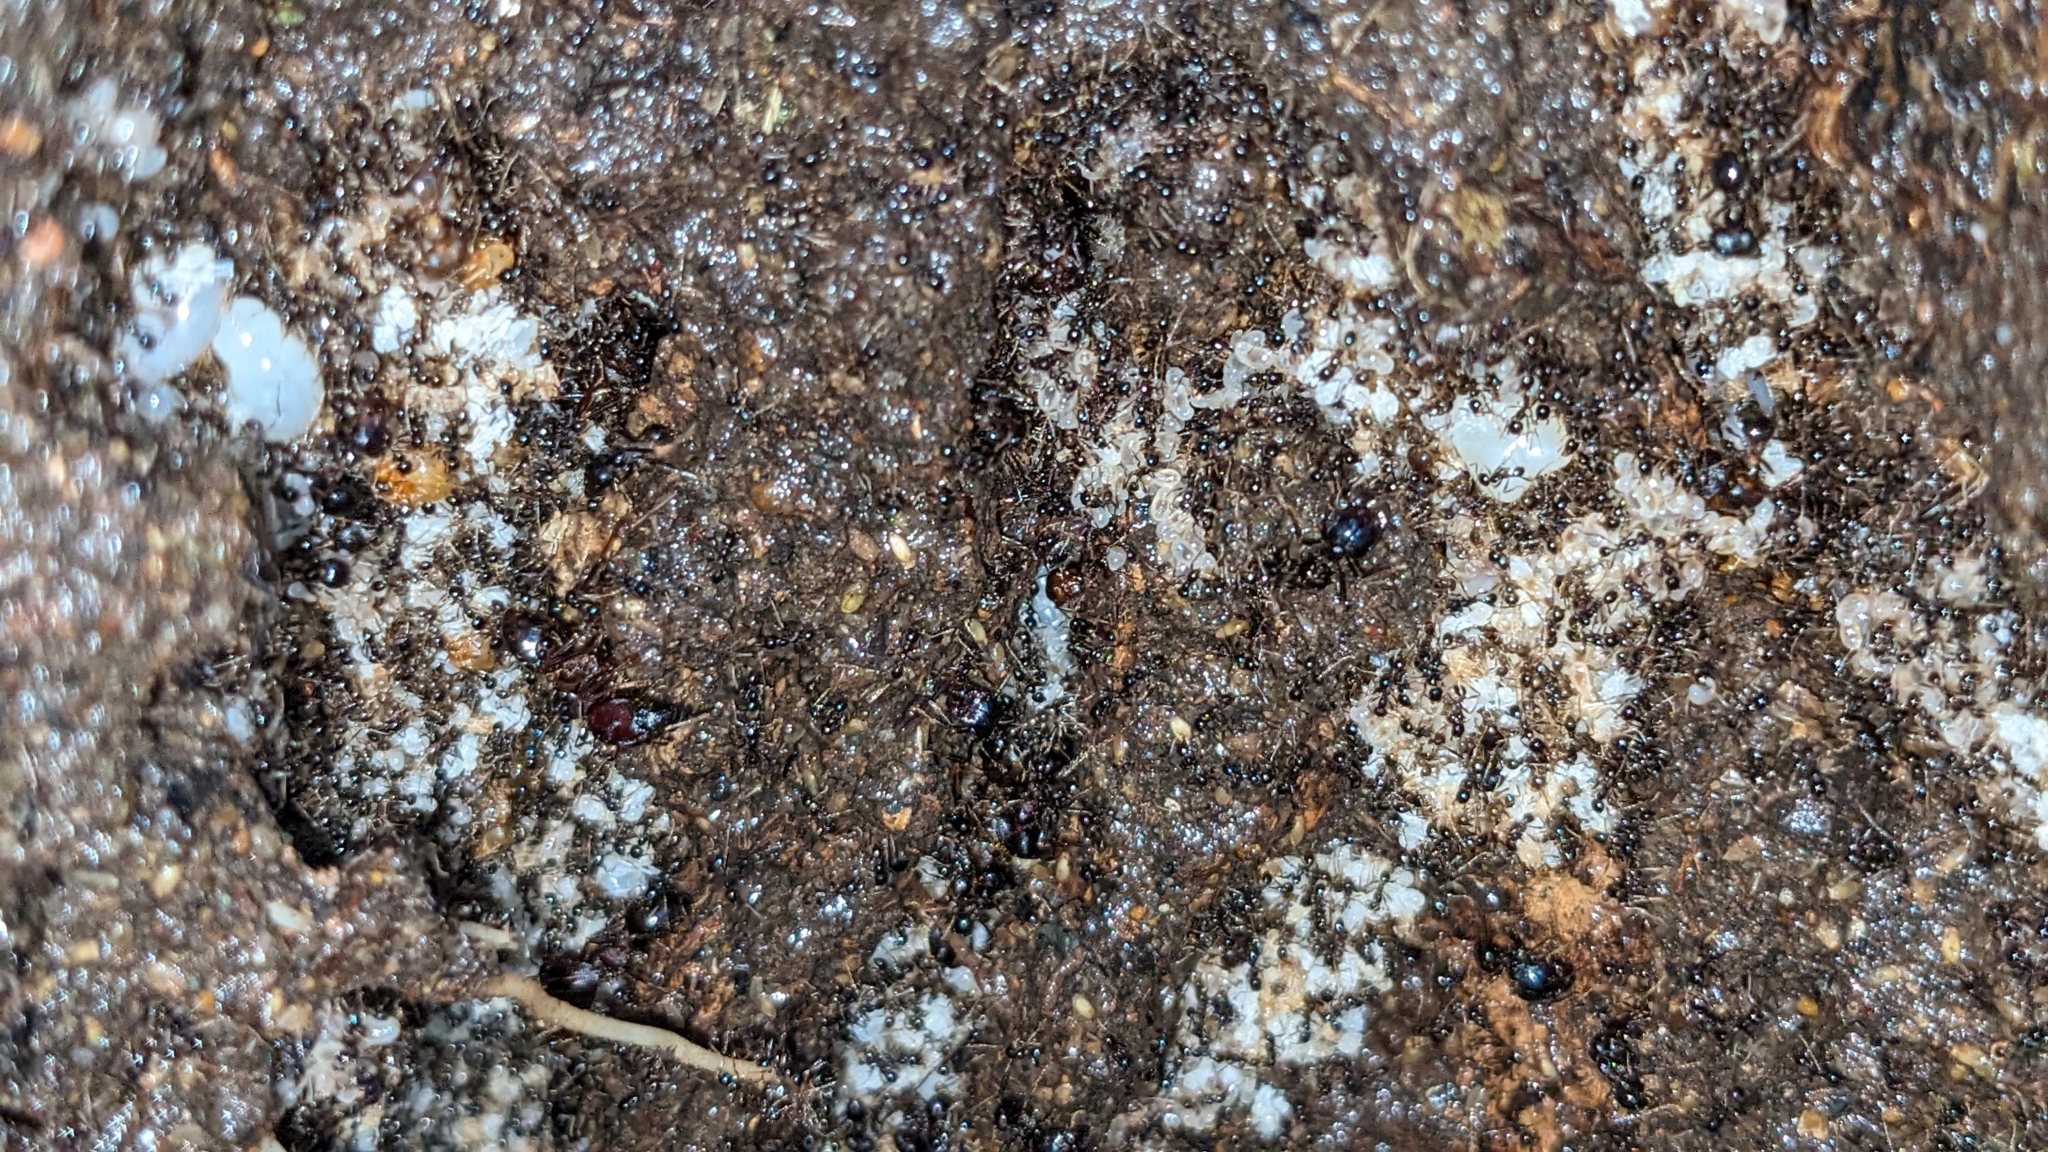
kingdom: Animalia
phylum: Arthropoda
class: Insecta
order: Hymenoptera
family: Formicidae
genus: Pheidologeton
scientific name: Pheidologeton diversus
